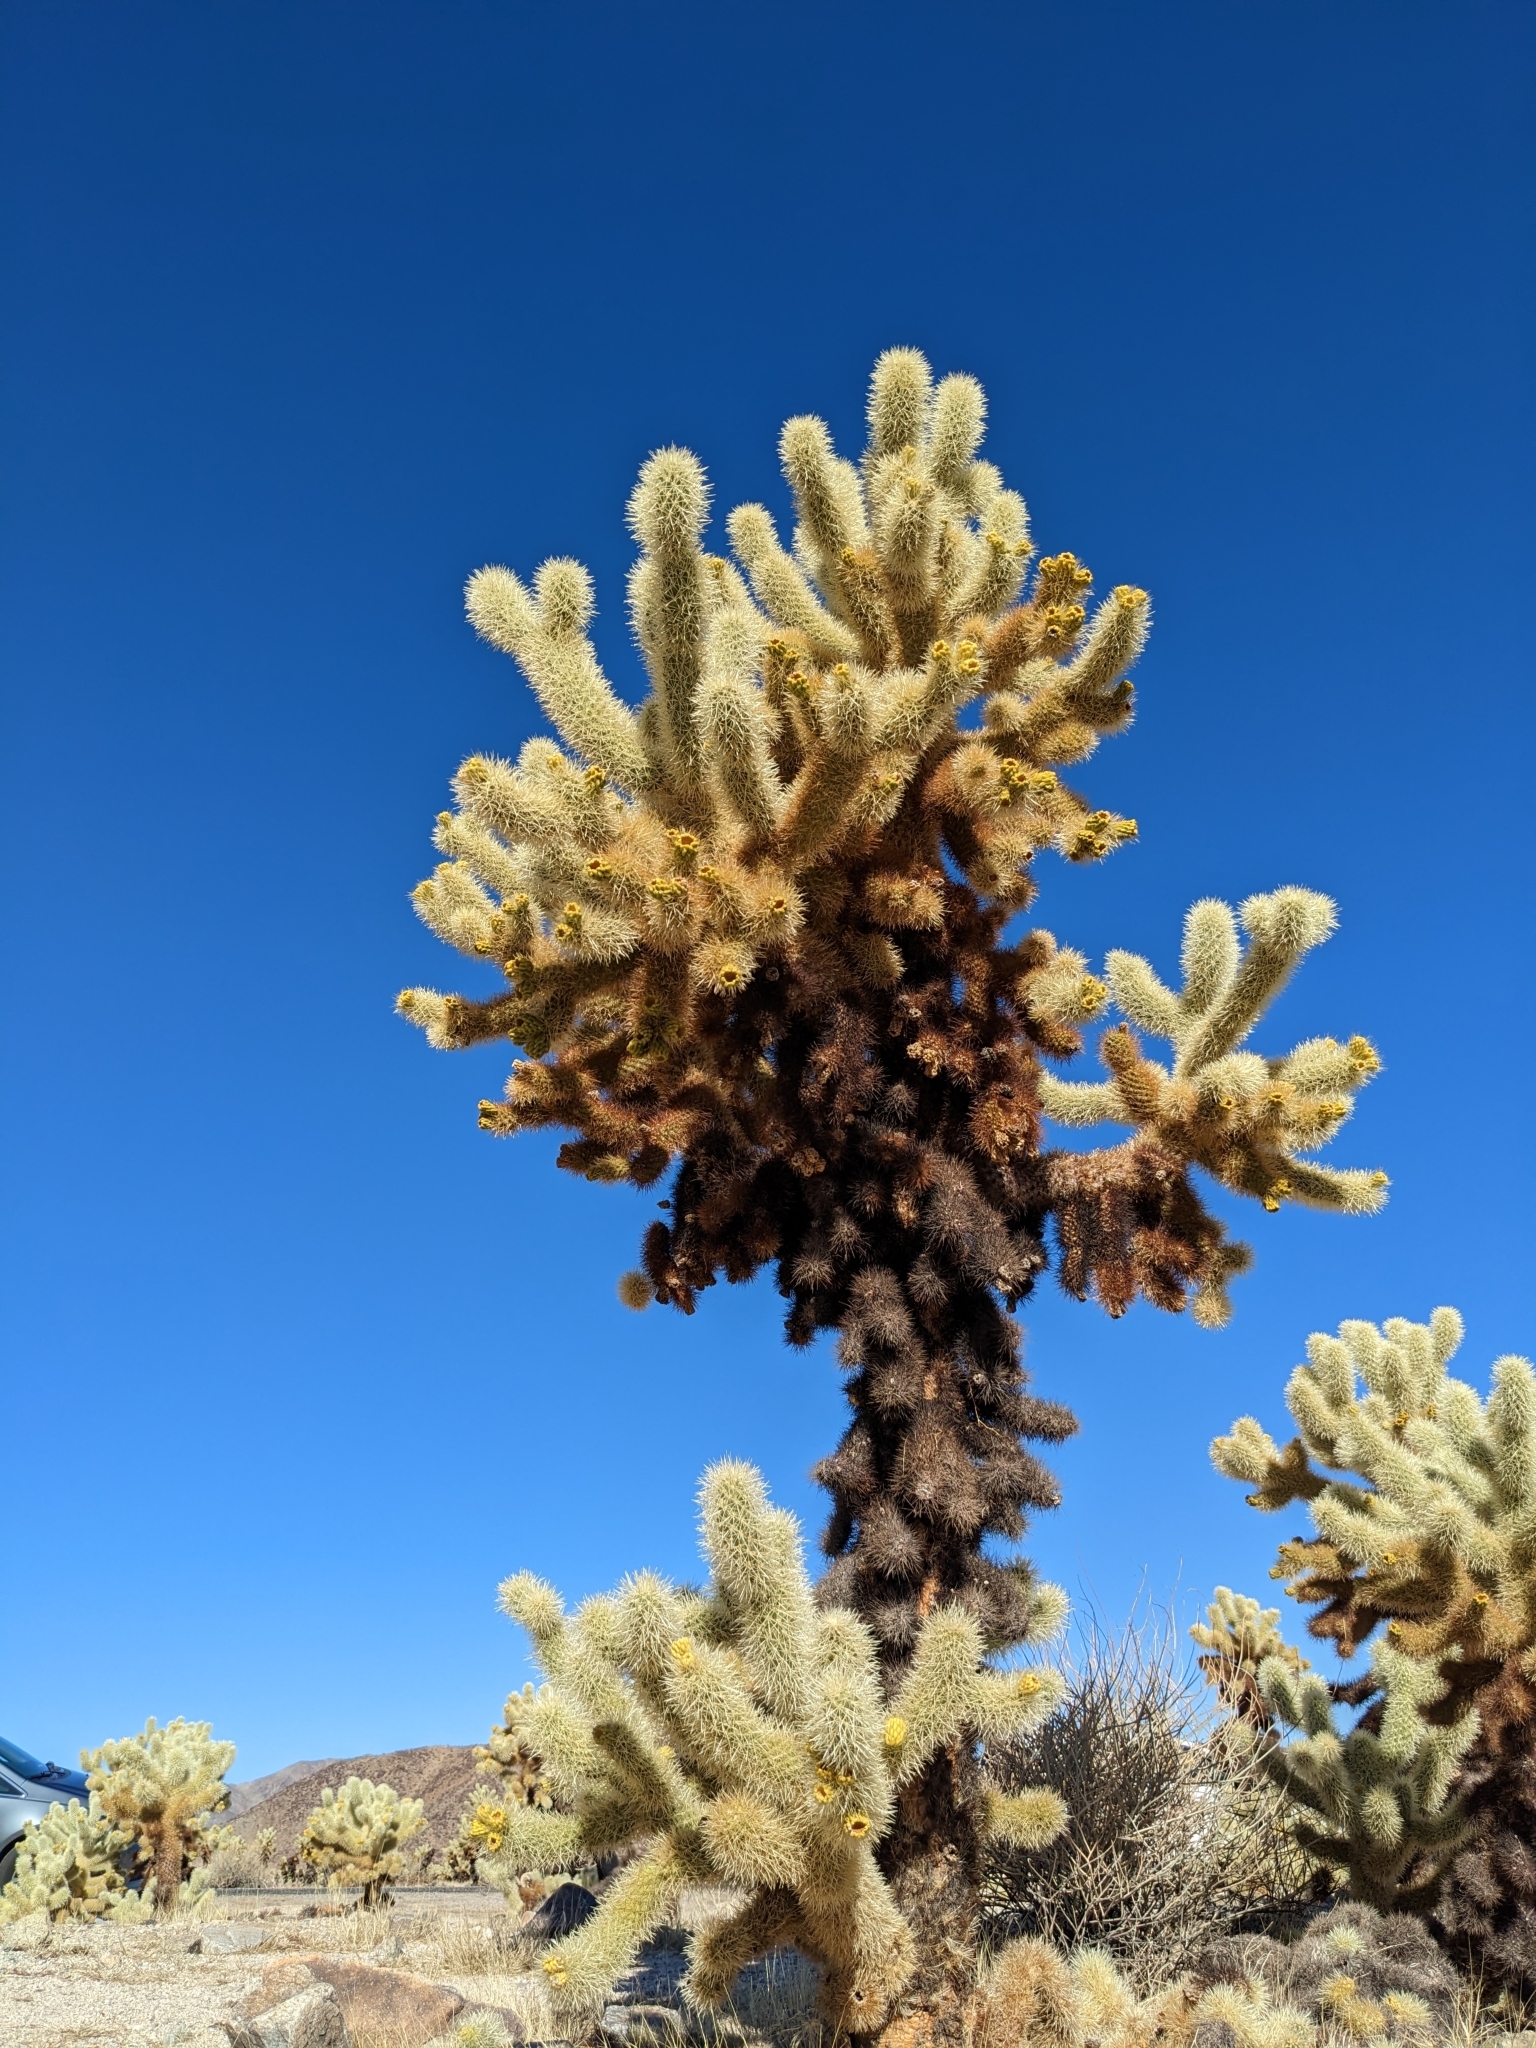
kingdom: Plantae
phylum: Tracheophyta
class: Magnoliopsida
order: Caryophyllales
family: Cactaceae
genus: Cylindropuntia
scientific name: Cylindropuntia fosbergii
